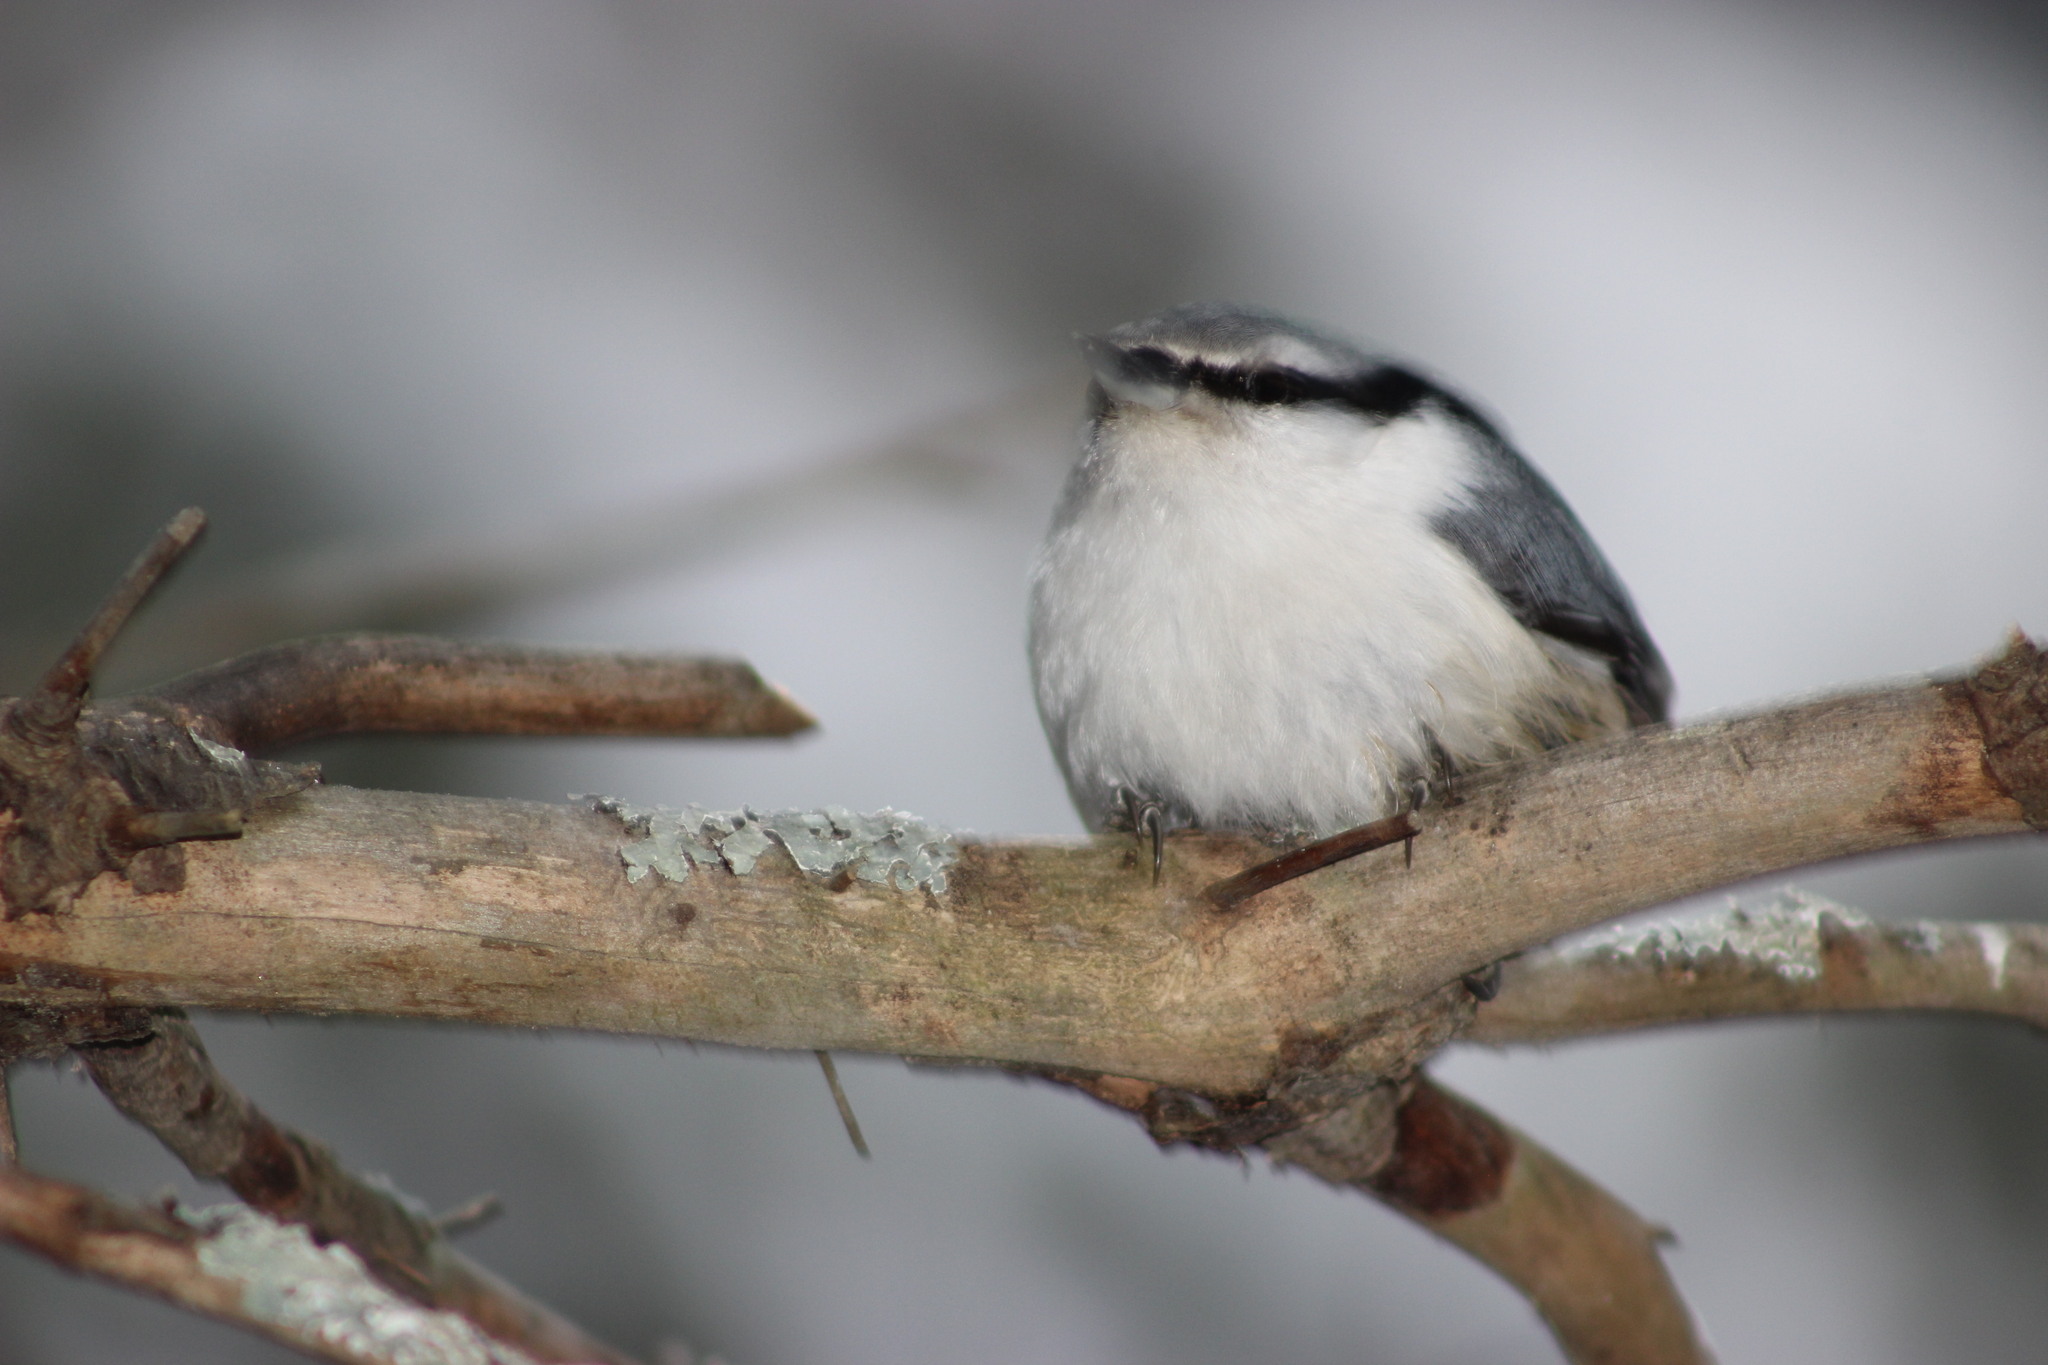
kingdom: Animalia
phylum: Chordata
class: Aves
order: Passeriformes
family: Sittidae
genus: Sitta
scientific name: Sitta europaea
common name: Eurasian nuthatch
